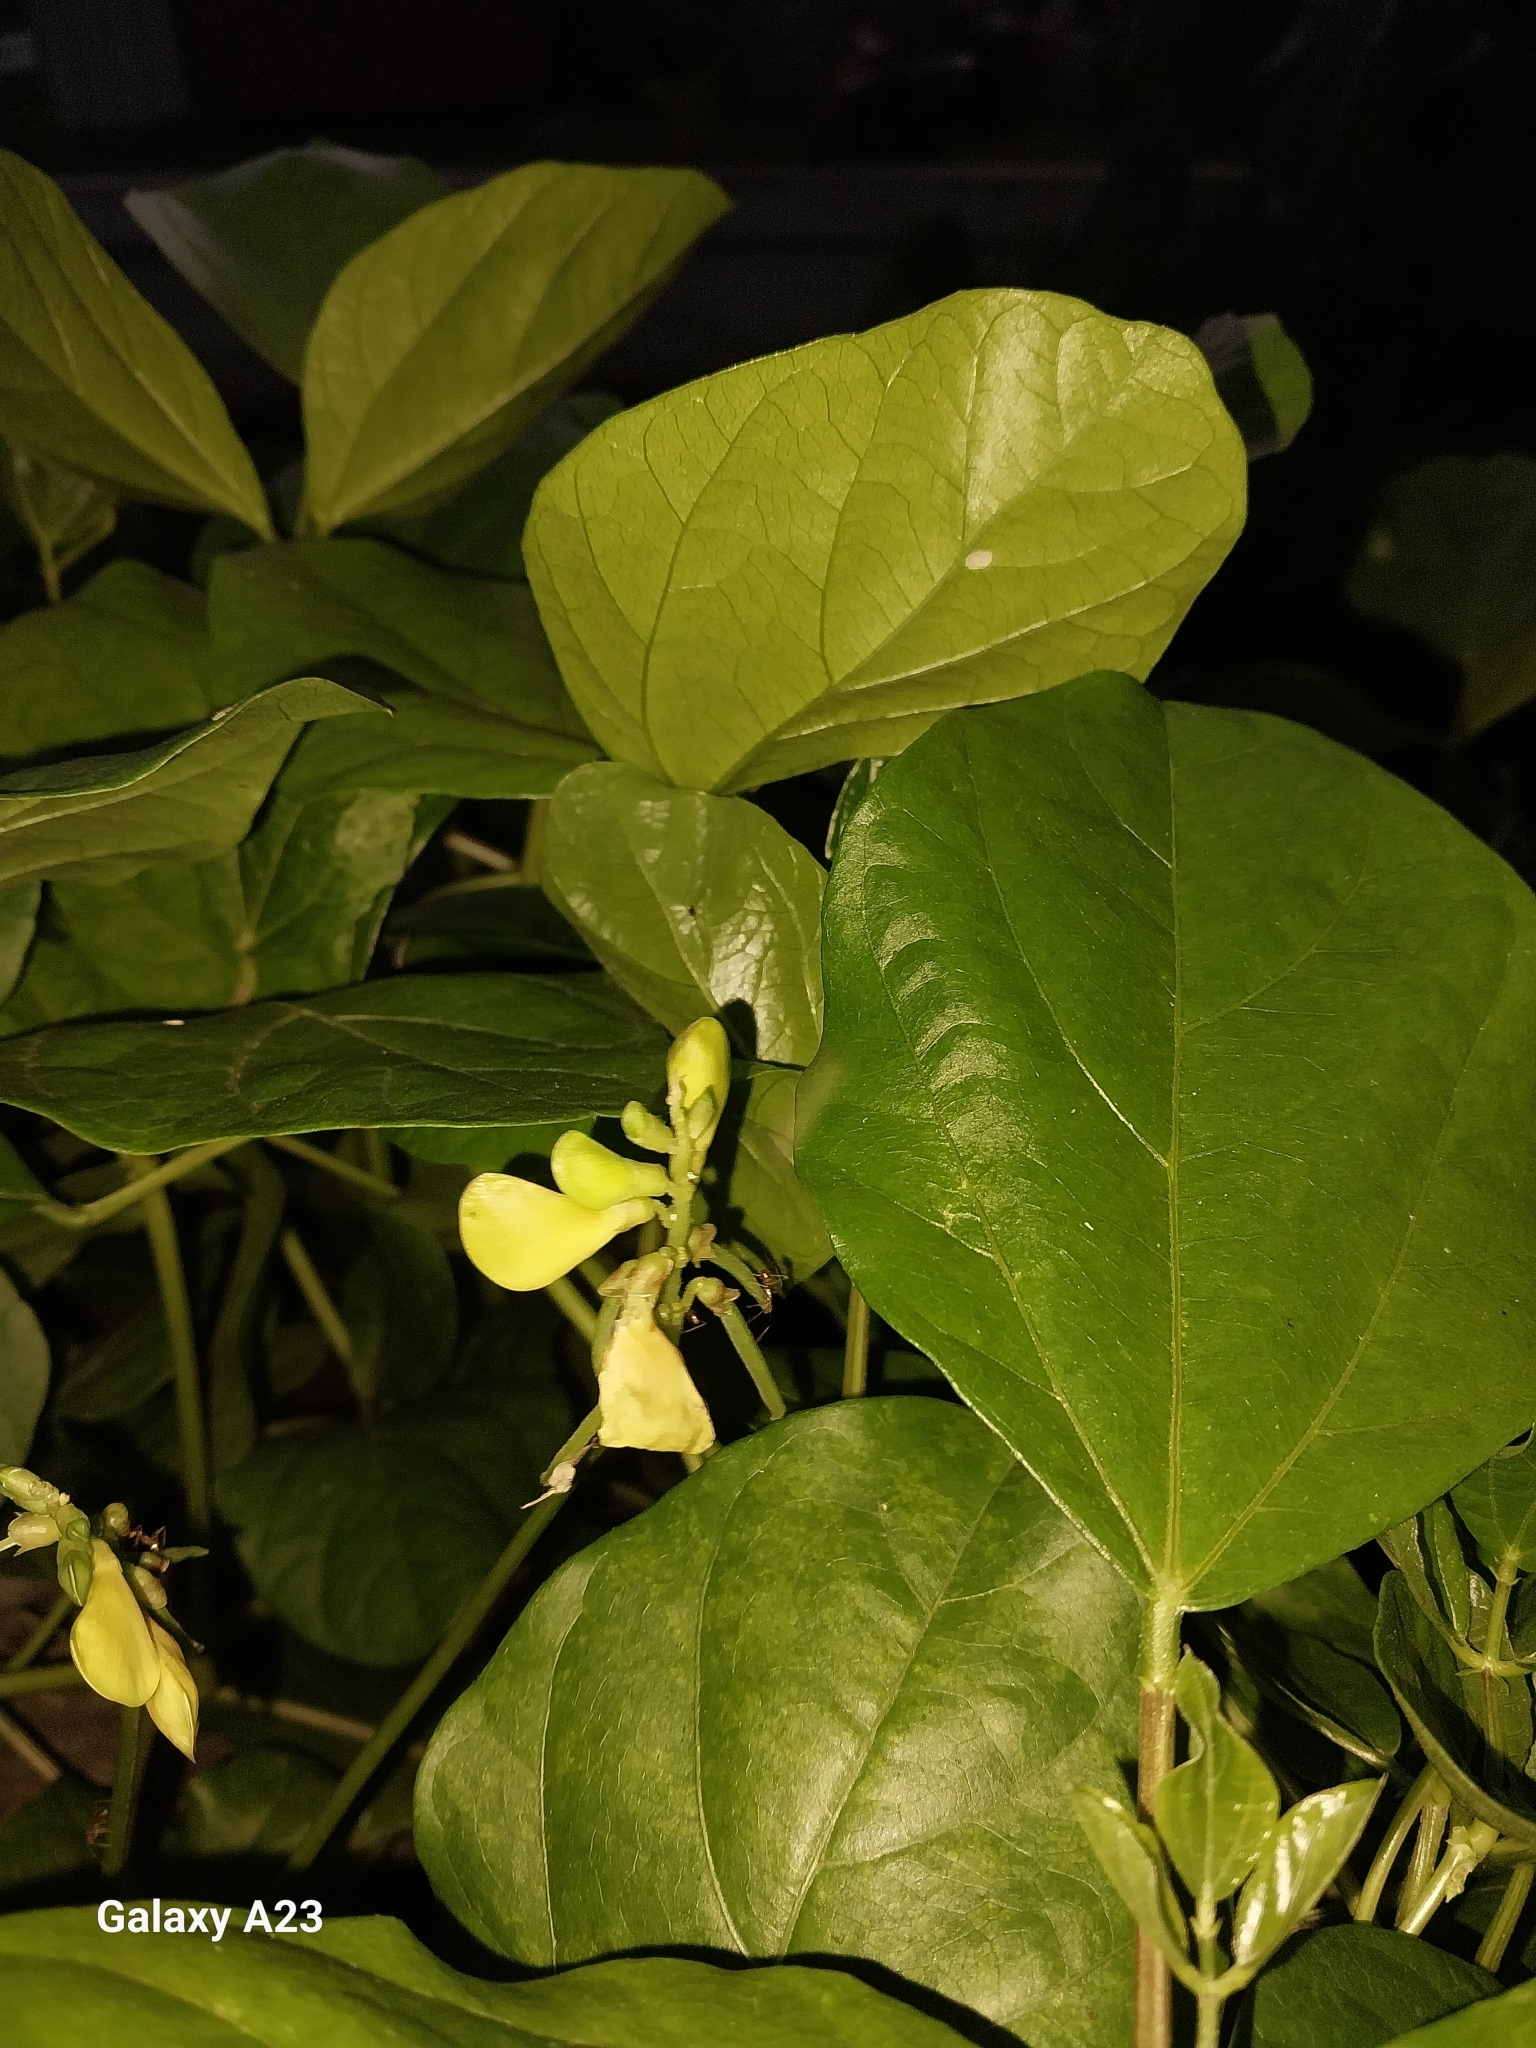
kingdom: Plantae
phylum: Tracheophyta
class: Magnoliopsida
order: Fabales
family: Fabaceae
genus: Vigna
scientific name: Vigna marina
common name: Dune-bean
